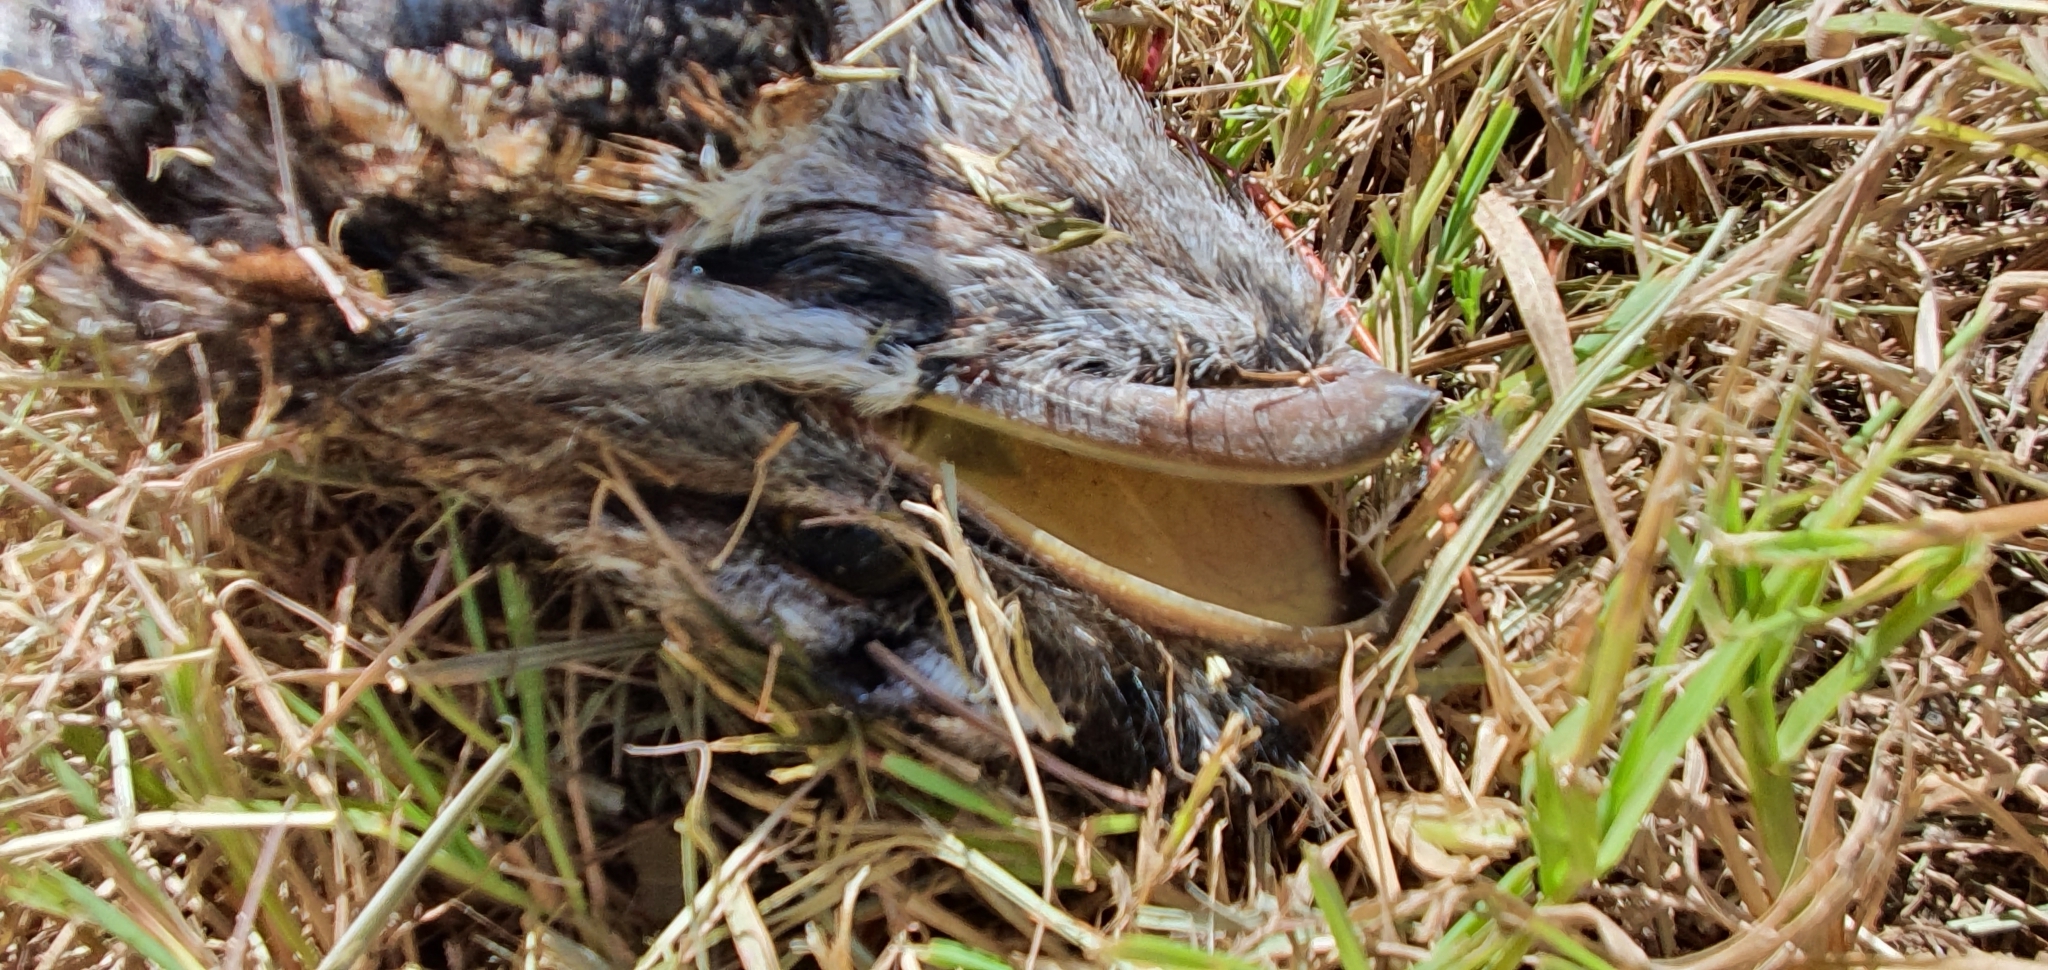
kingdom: Animalia
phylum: Chordata
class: Aves
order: Caprimulgiformes
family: Podargidae
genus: Podargus
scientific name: Podargus strigoides
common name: Tawny frogmouth
